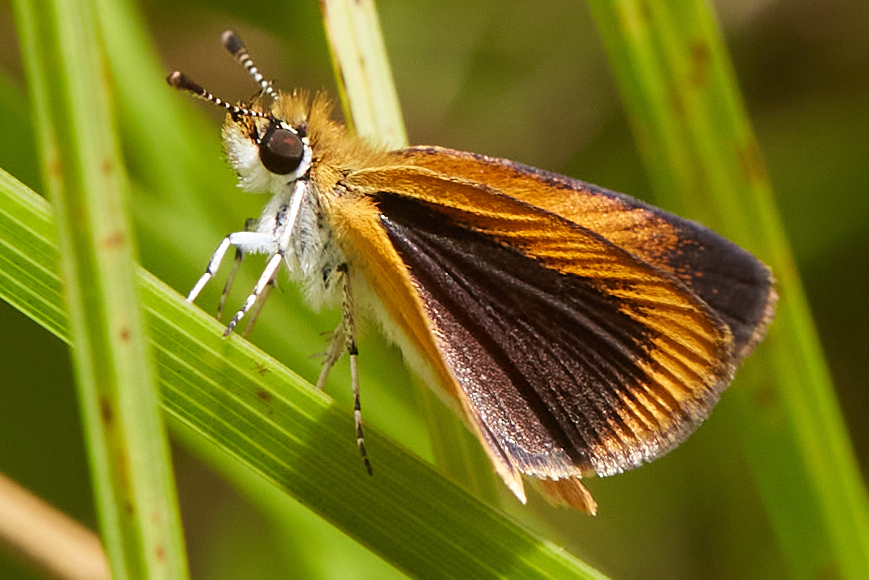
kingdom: Animalia
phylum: Arthropoda
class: Insecta
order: Lepidoptera
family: Hesperiidae
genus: Ancyloxypha
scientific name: Ancyloxypha numitor
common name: Least skipper
